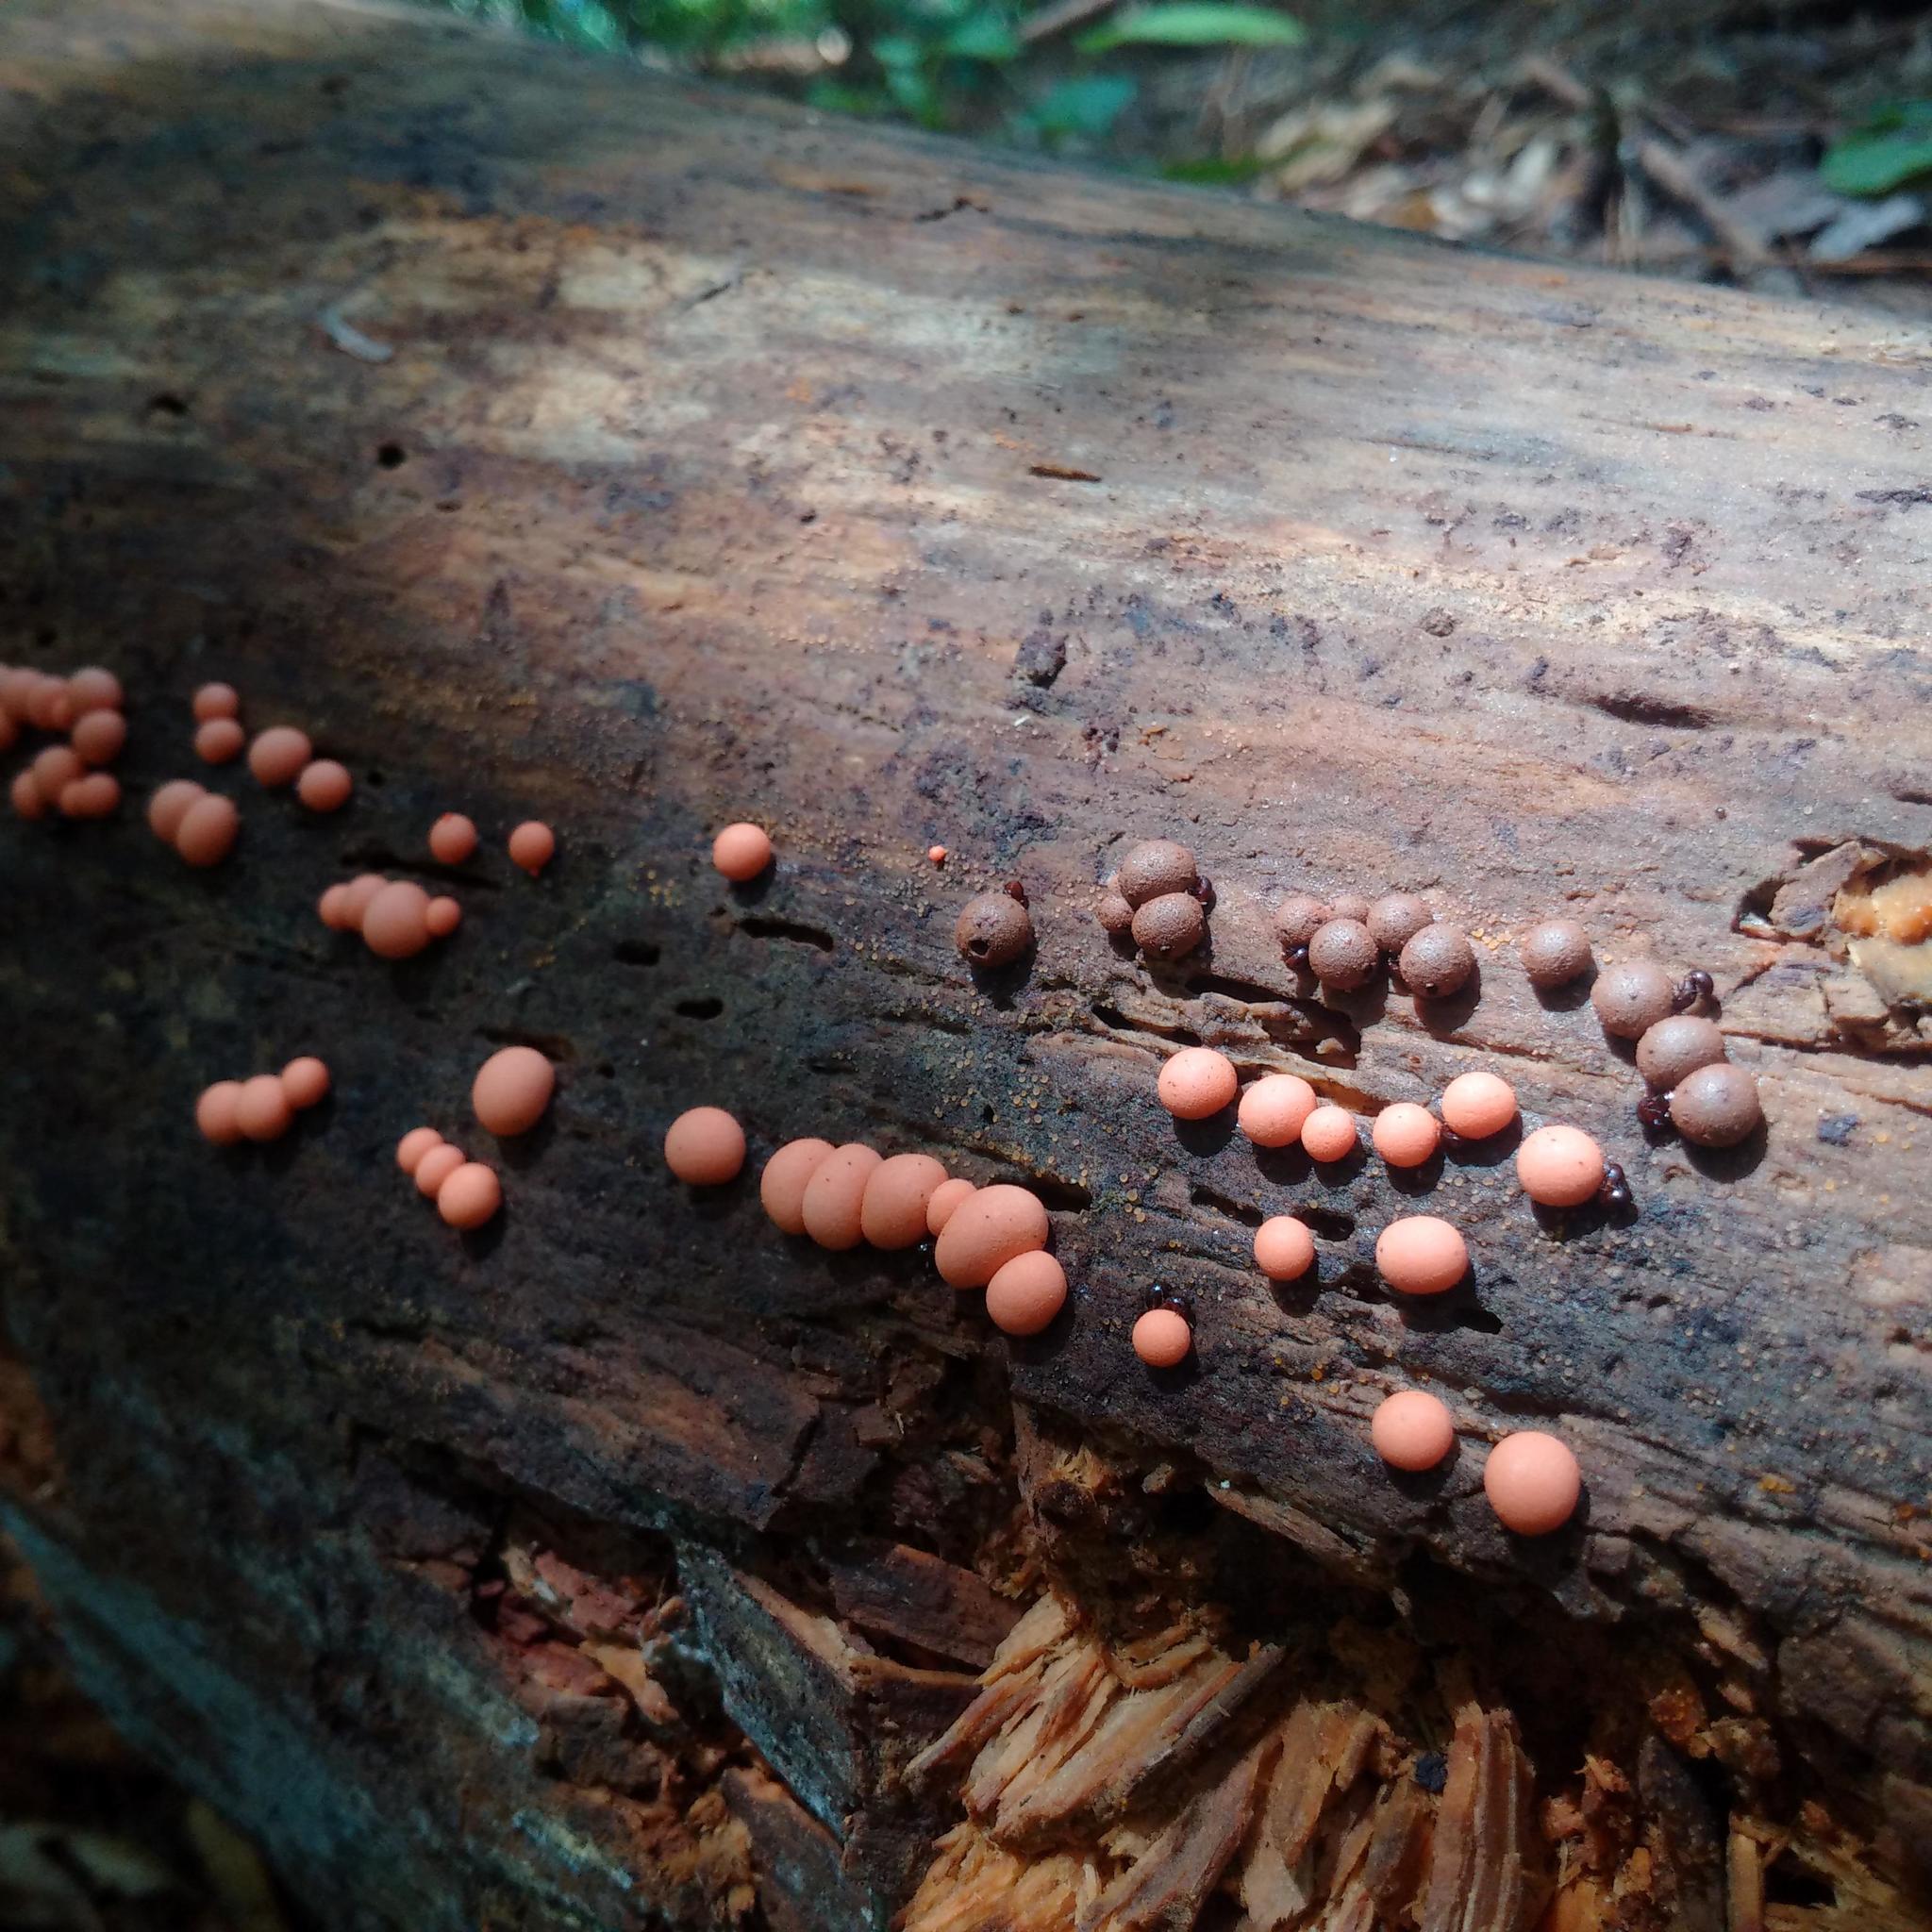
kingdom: Protozoa
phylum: Mycetozoa
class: Myxomycetes
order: Cribrariales
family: Tubiferaceae
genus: Lycogala
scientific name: Lycogala epidendrum
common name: Wolf's milk
